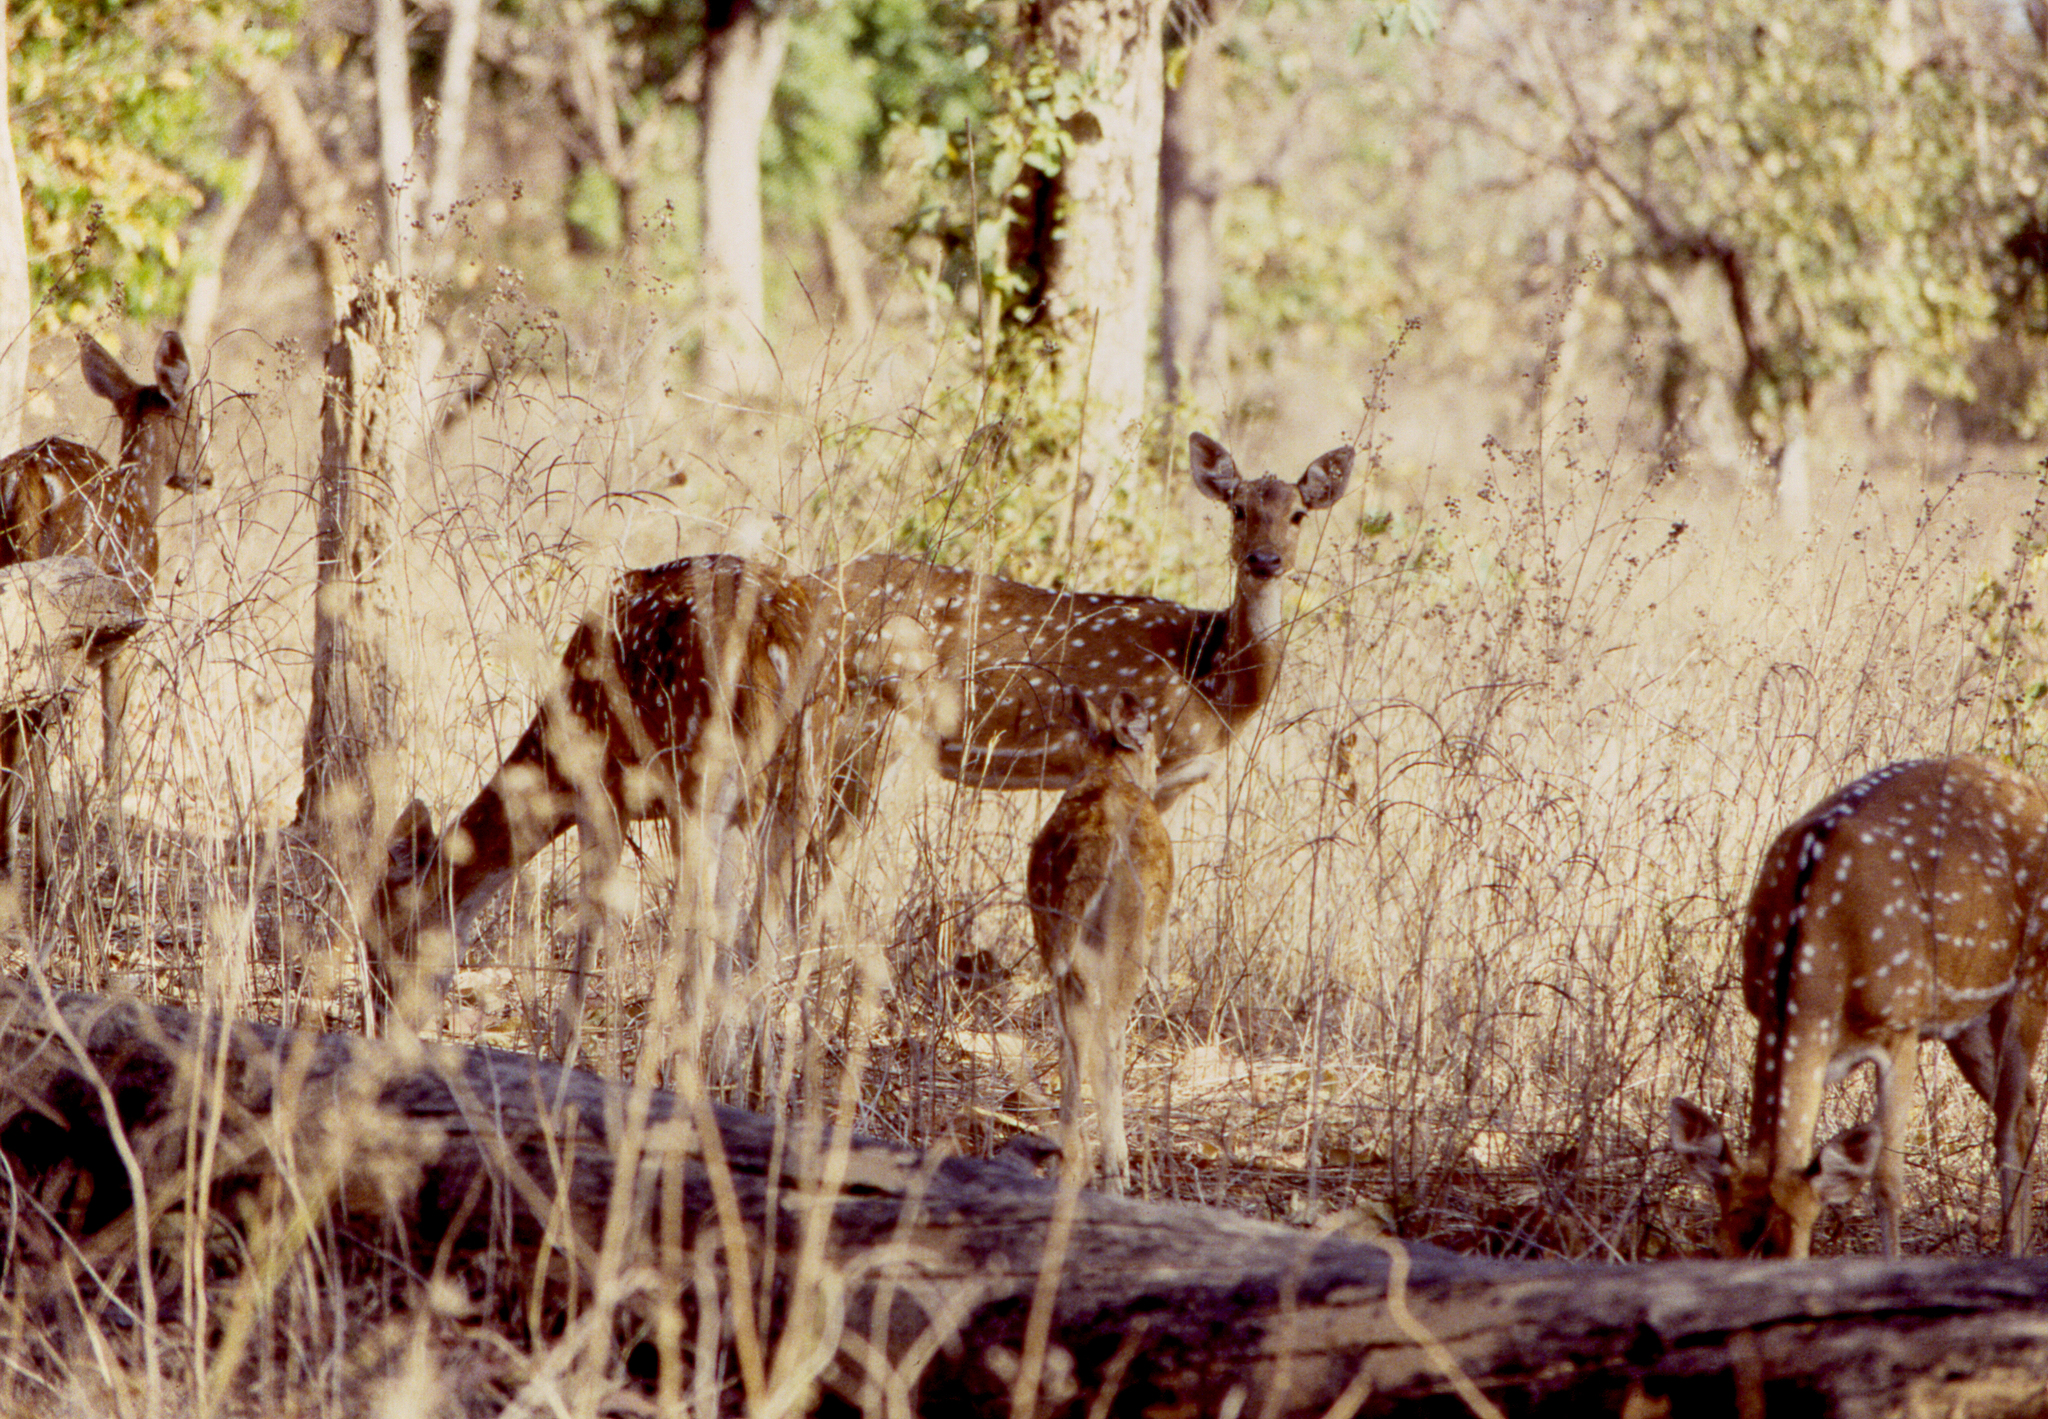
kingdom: Animalia
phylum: Chordata
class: Mammalia
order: Artiodactyla
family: Cervidae
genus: Axis
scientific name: Axis axis
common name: Chital
